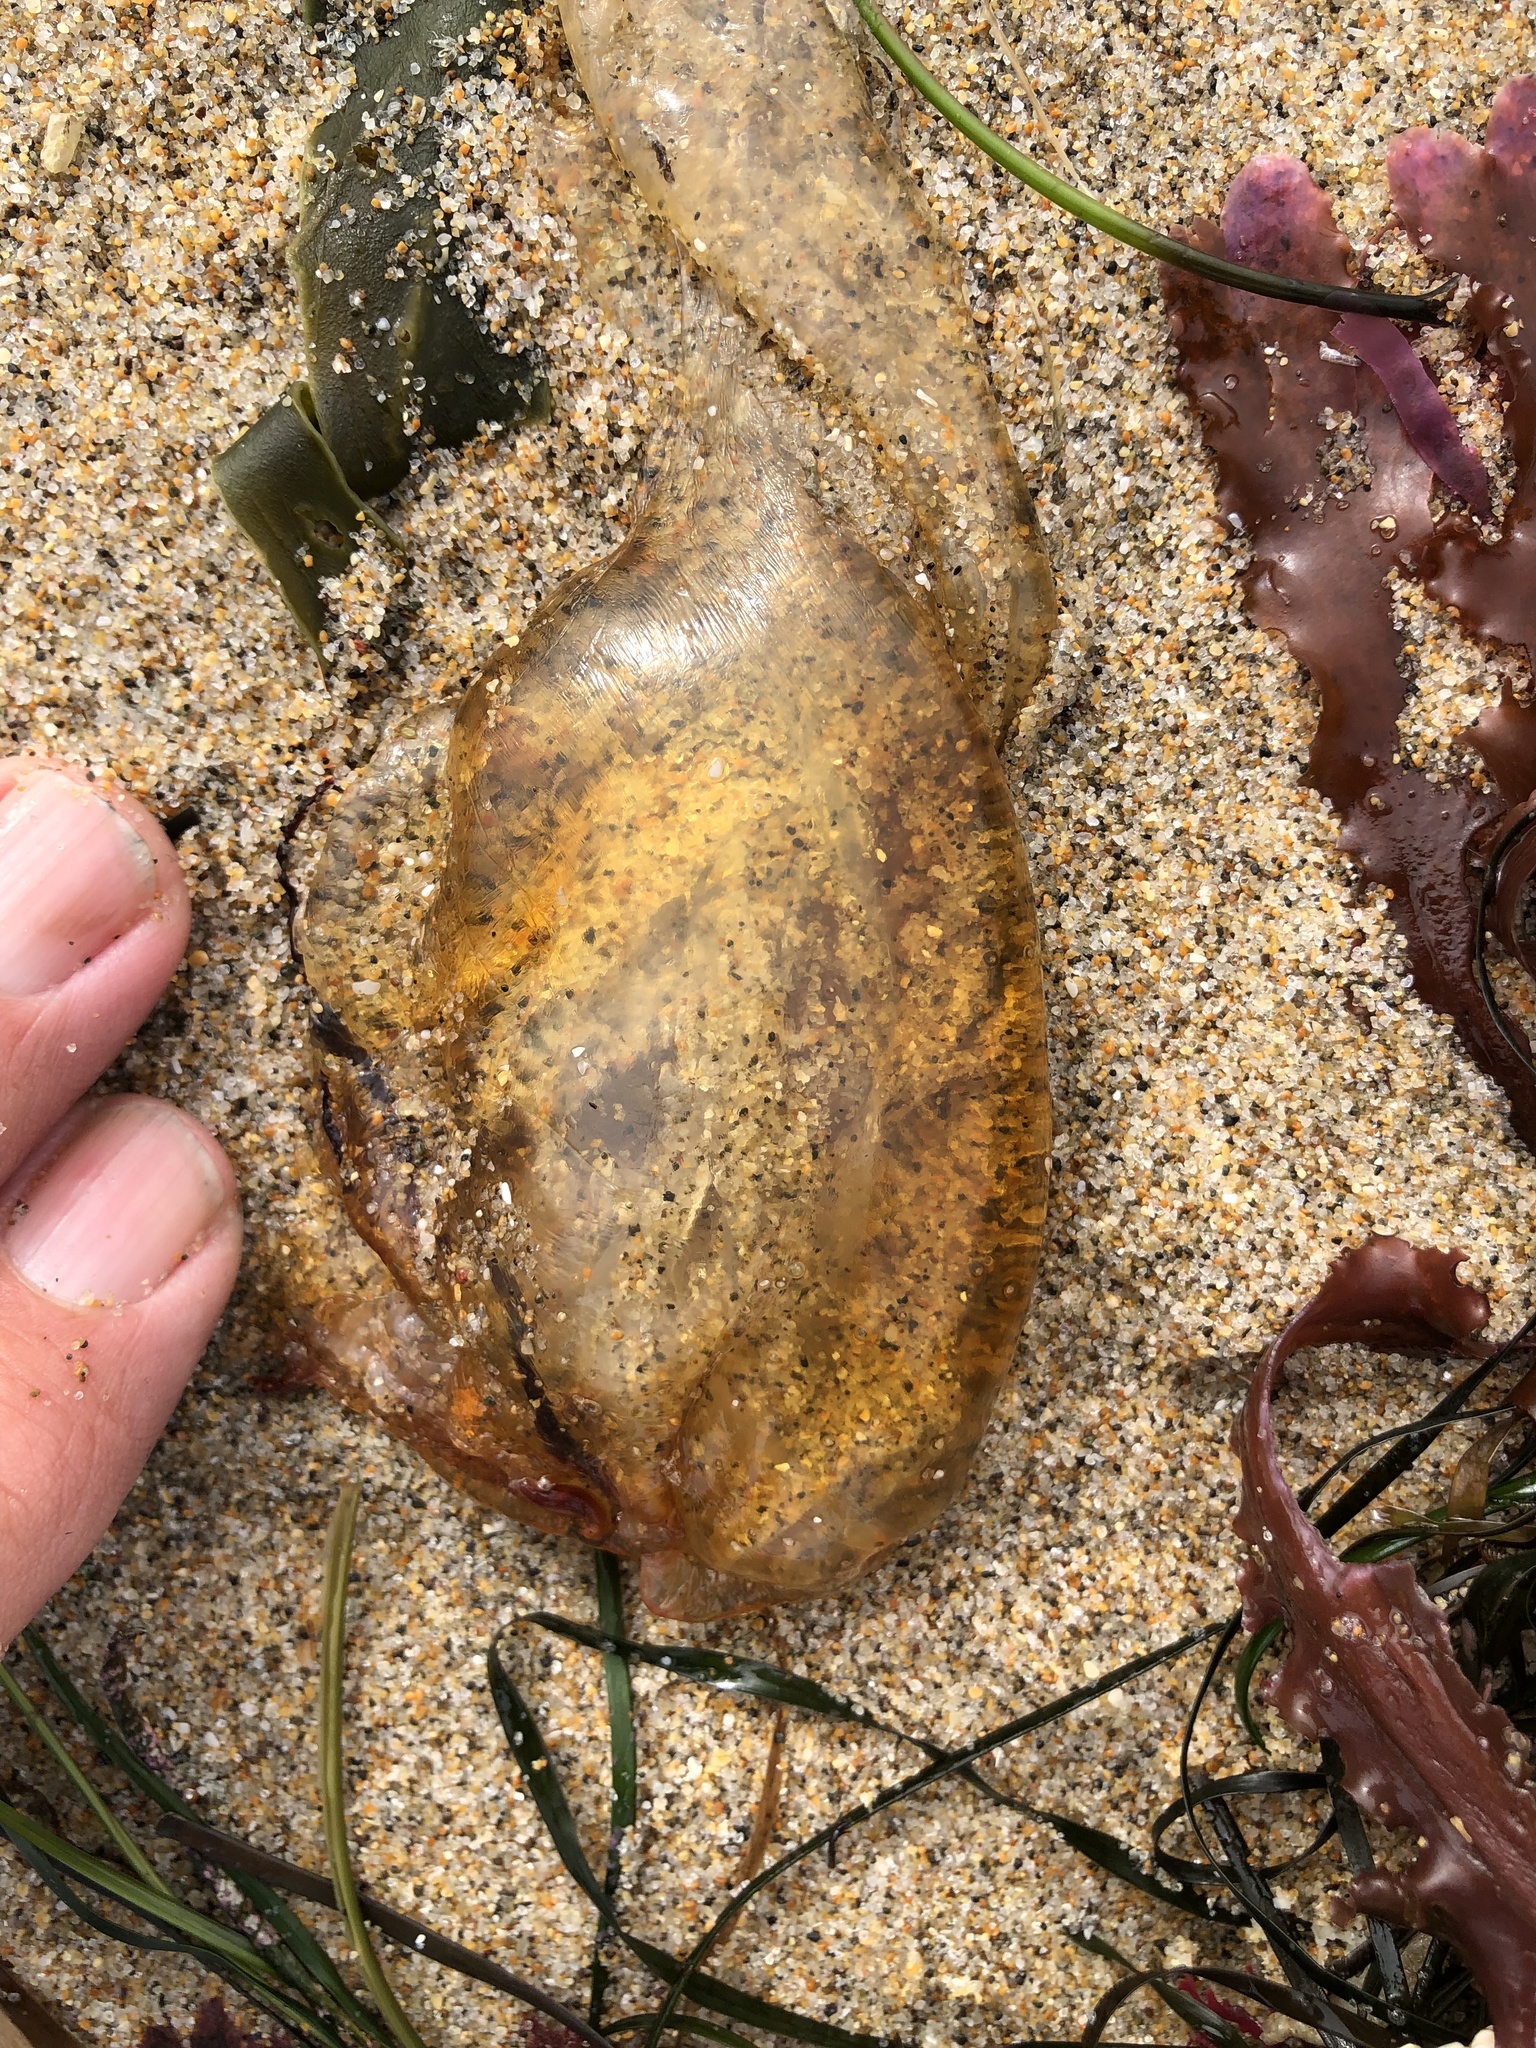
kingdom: Animalia
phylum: Cnidaria
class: Scyphozoa
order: Semaeostomeae
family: Pelagiidae
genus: Chrysaora
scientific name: Chrysaora fuscescens
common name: Sea nettle
